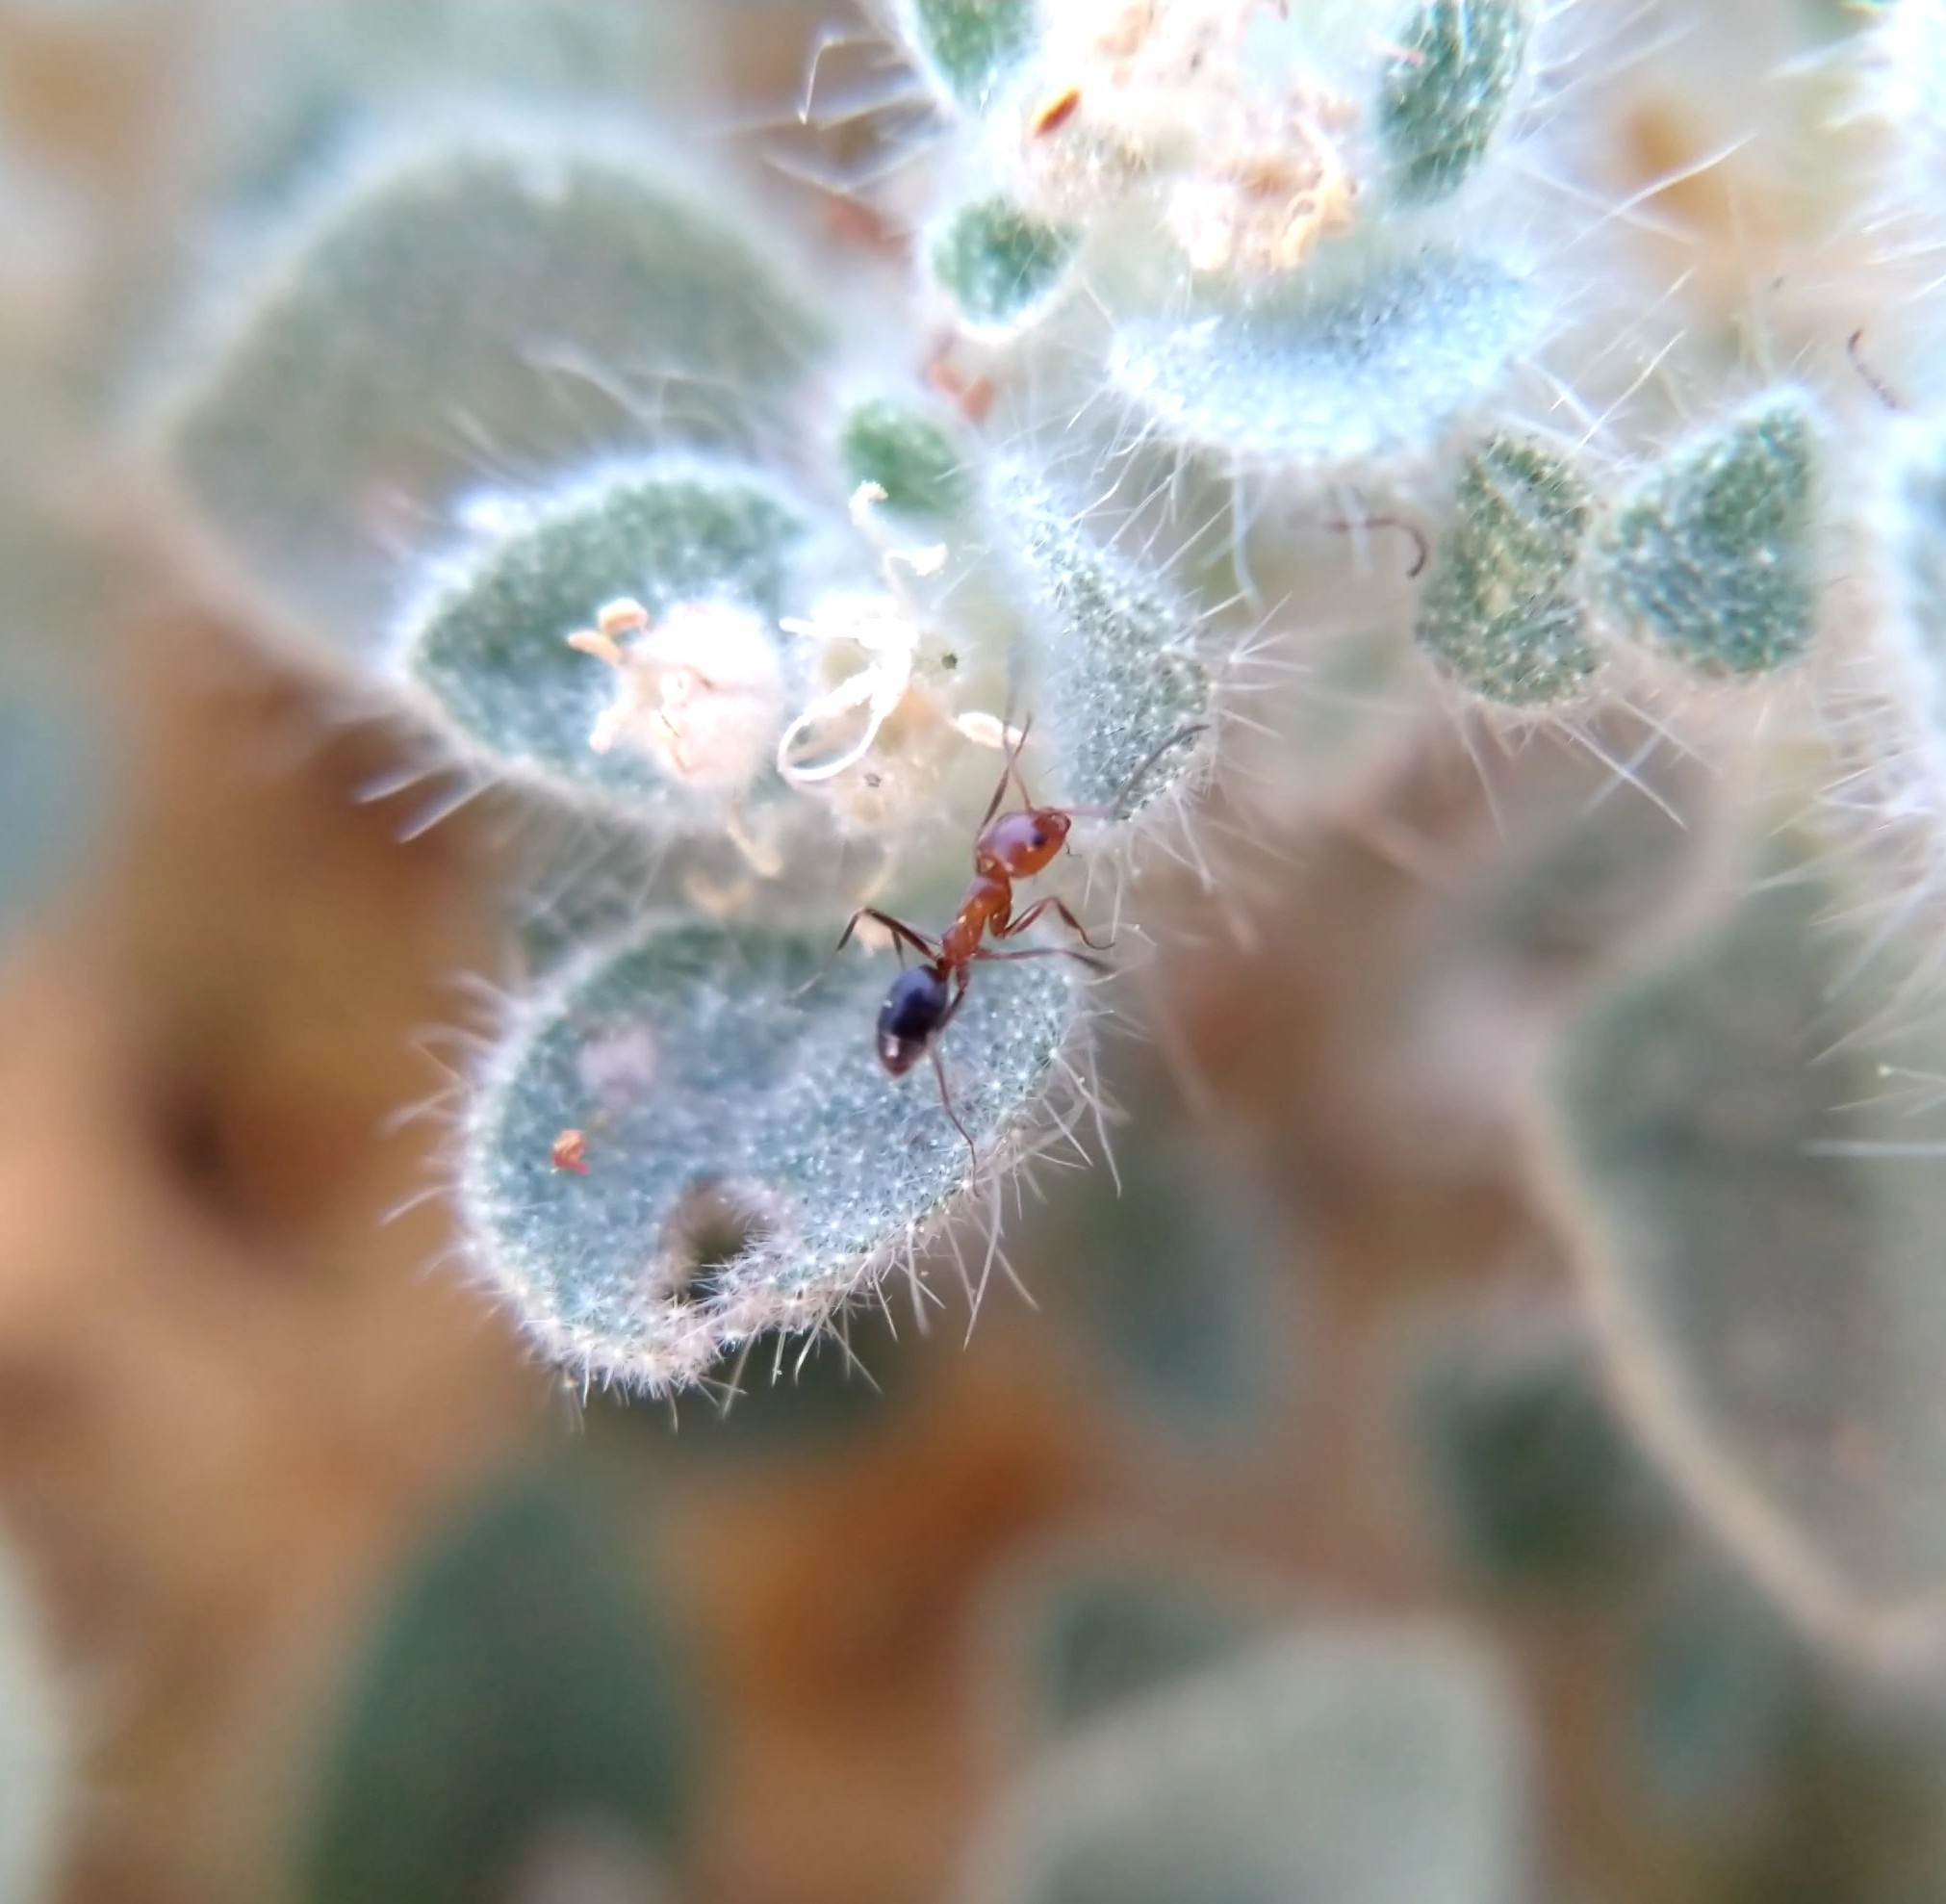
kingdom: Animalia
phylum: Arthropoda
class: Insecta
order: Hymenoptera
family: Formicidae
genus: Dorymyrmex
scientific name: Dorymyrmex bicolor
